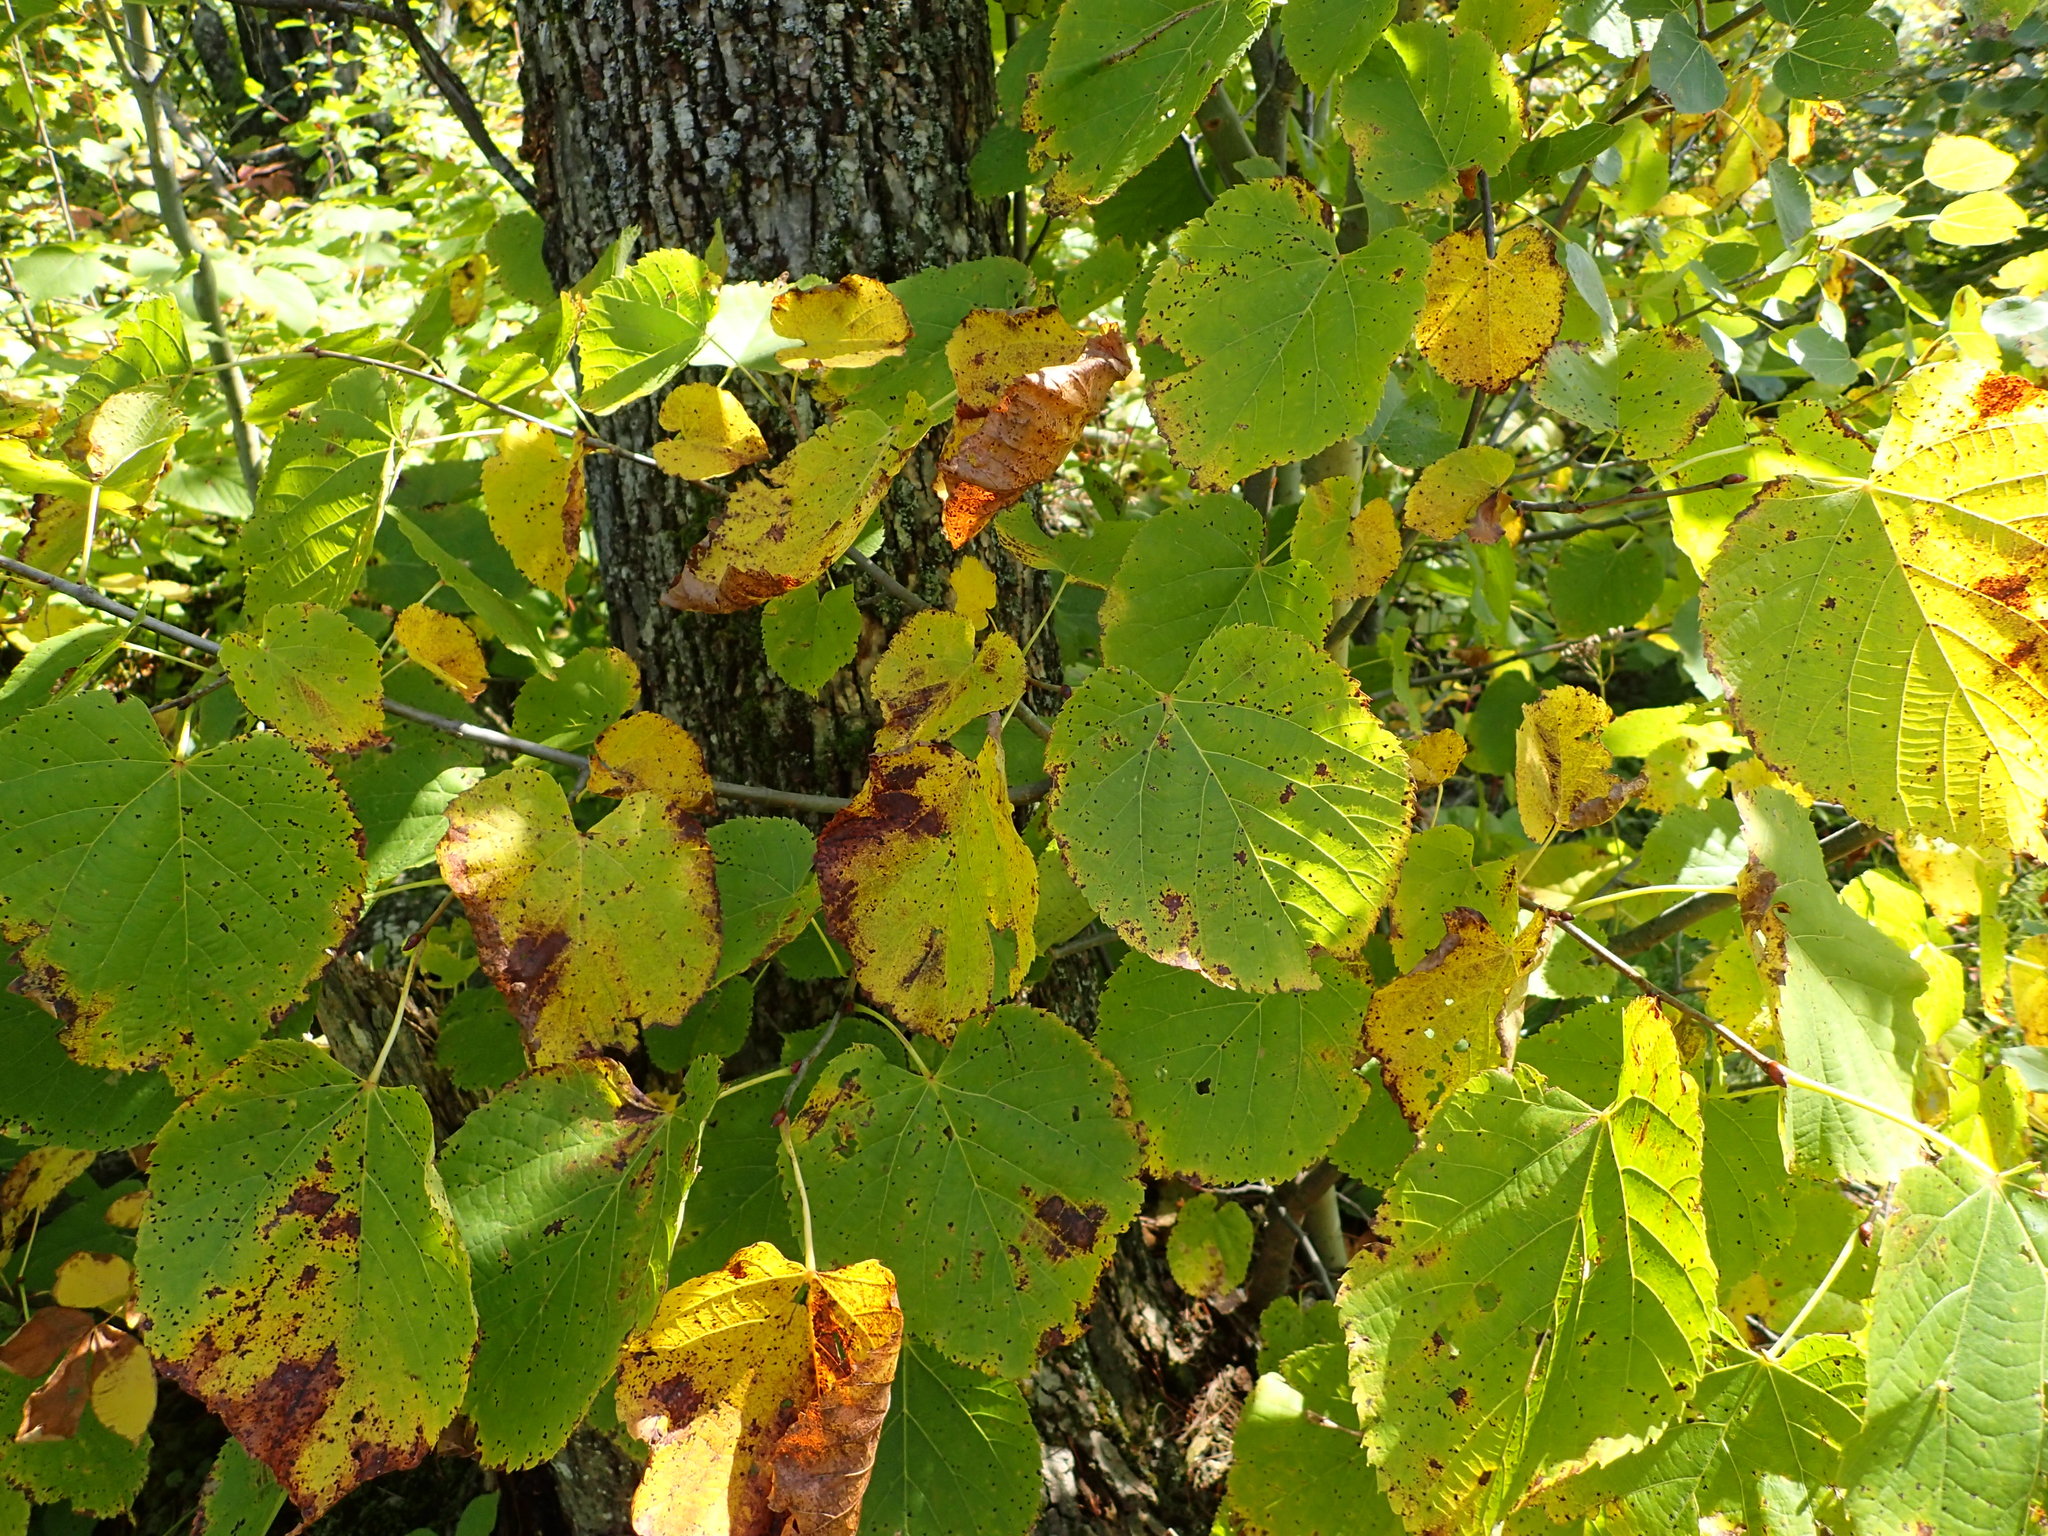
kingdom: Plantae
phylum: Tracheophyta
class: Magnoliopsida
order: Malvales
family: Malvaceae
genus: Tilia
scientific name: Tilia americana
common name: Basswood
